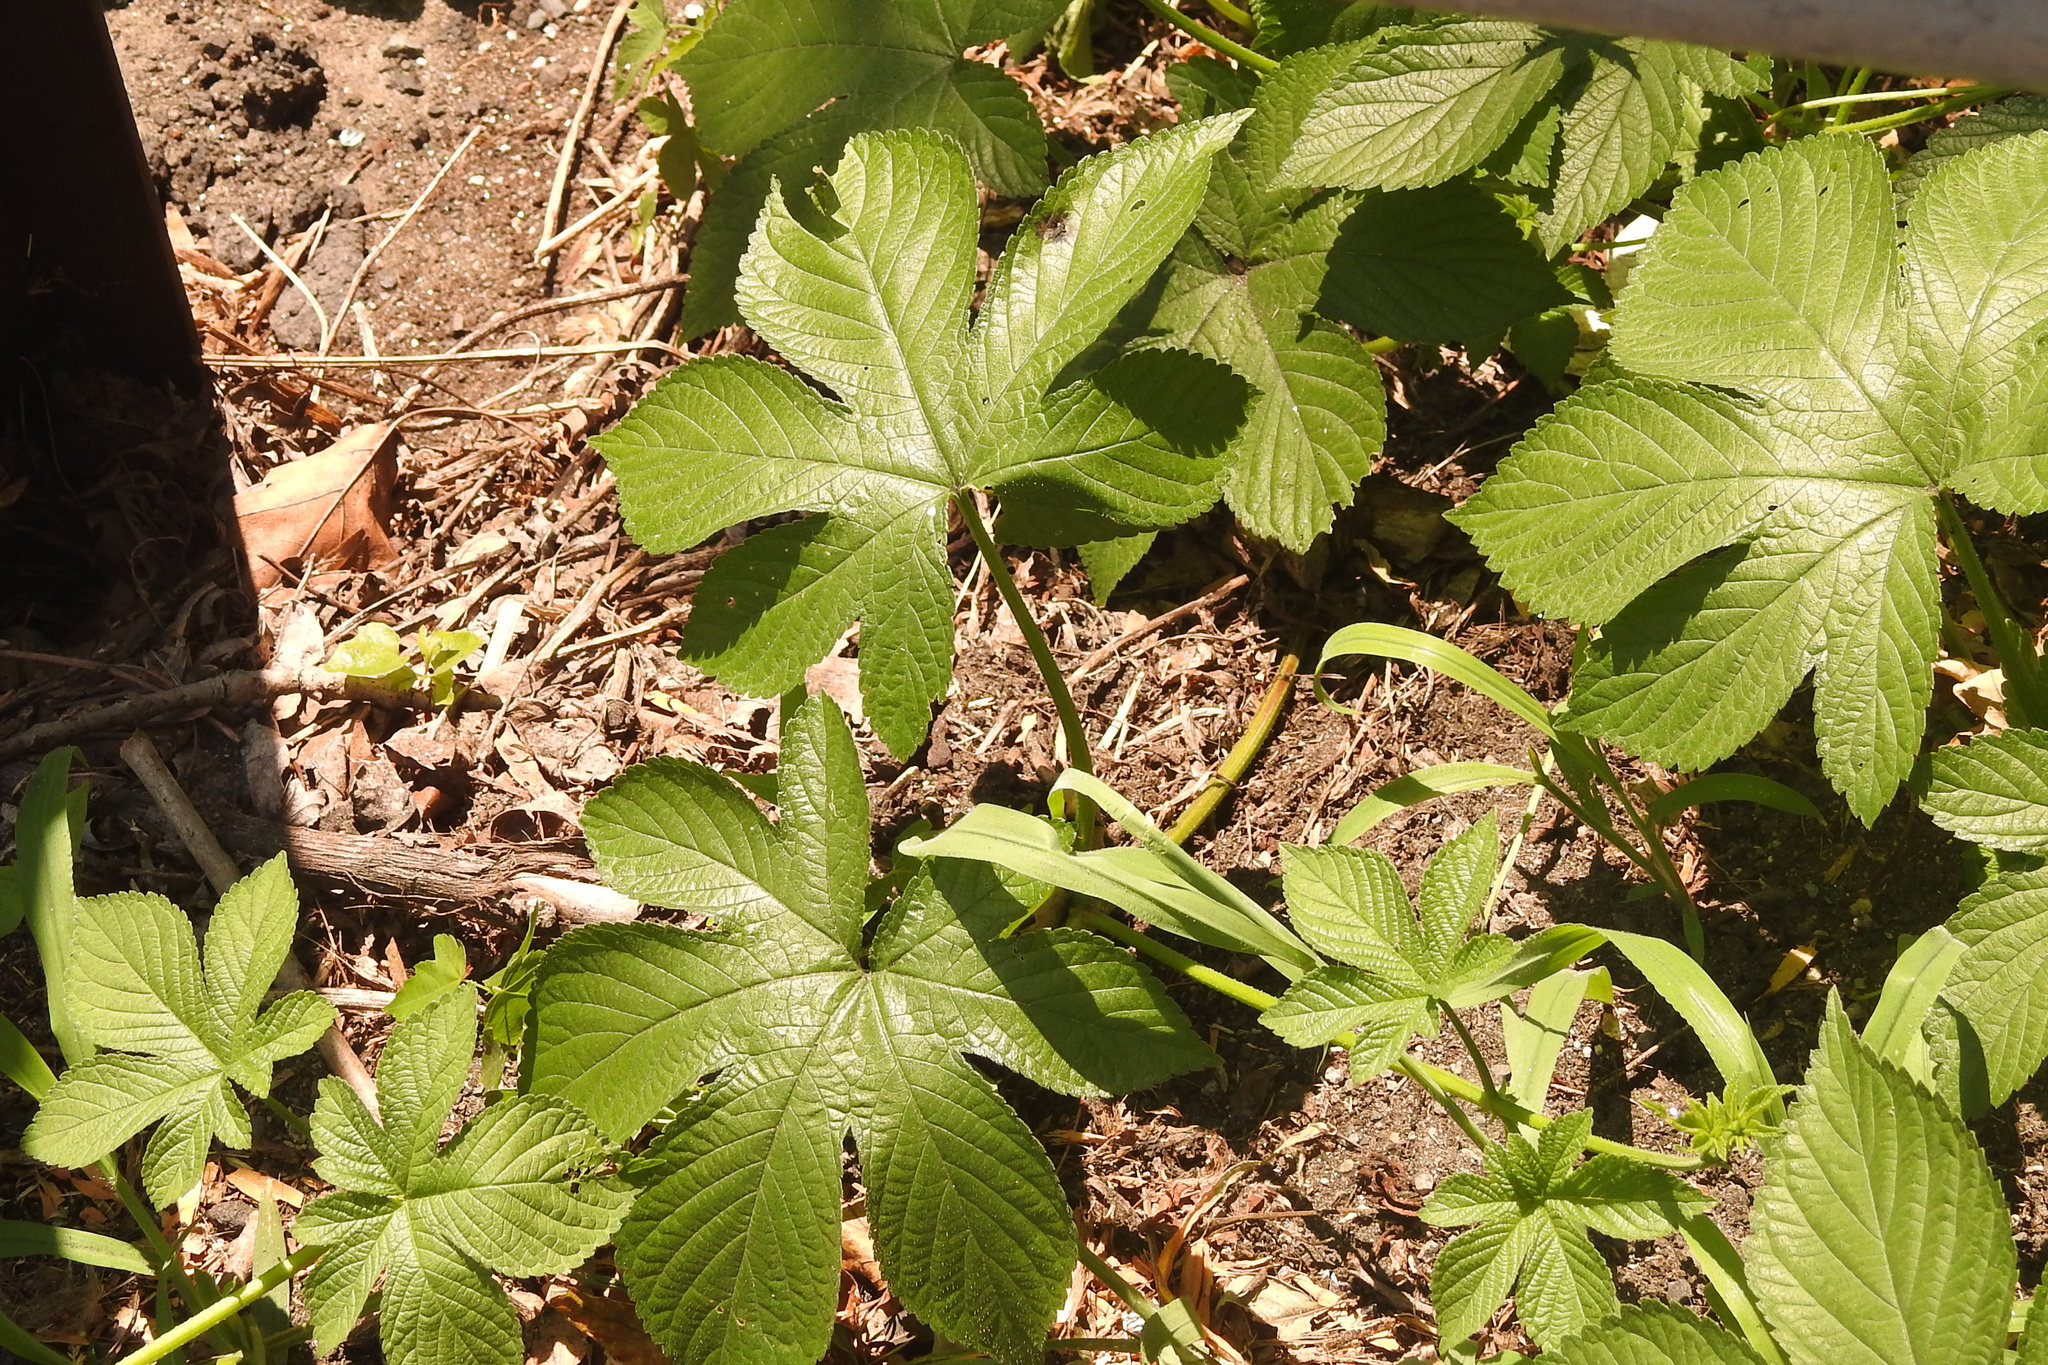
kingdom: Plantae
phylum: Tracheophyta
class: Magnoliopsida
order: Rosales
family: Cannabaceae
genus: Humulus
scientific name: Humulus scandens
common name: Japanese hop
